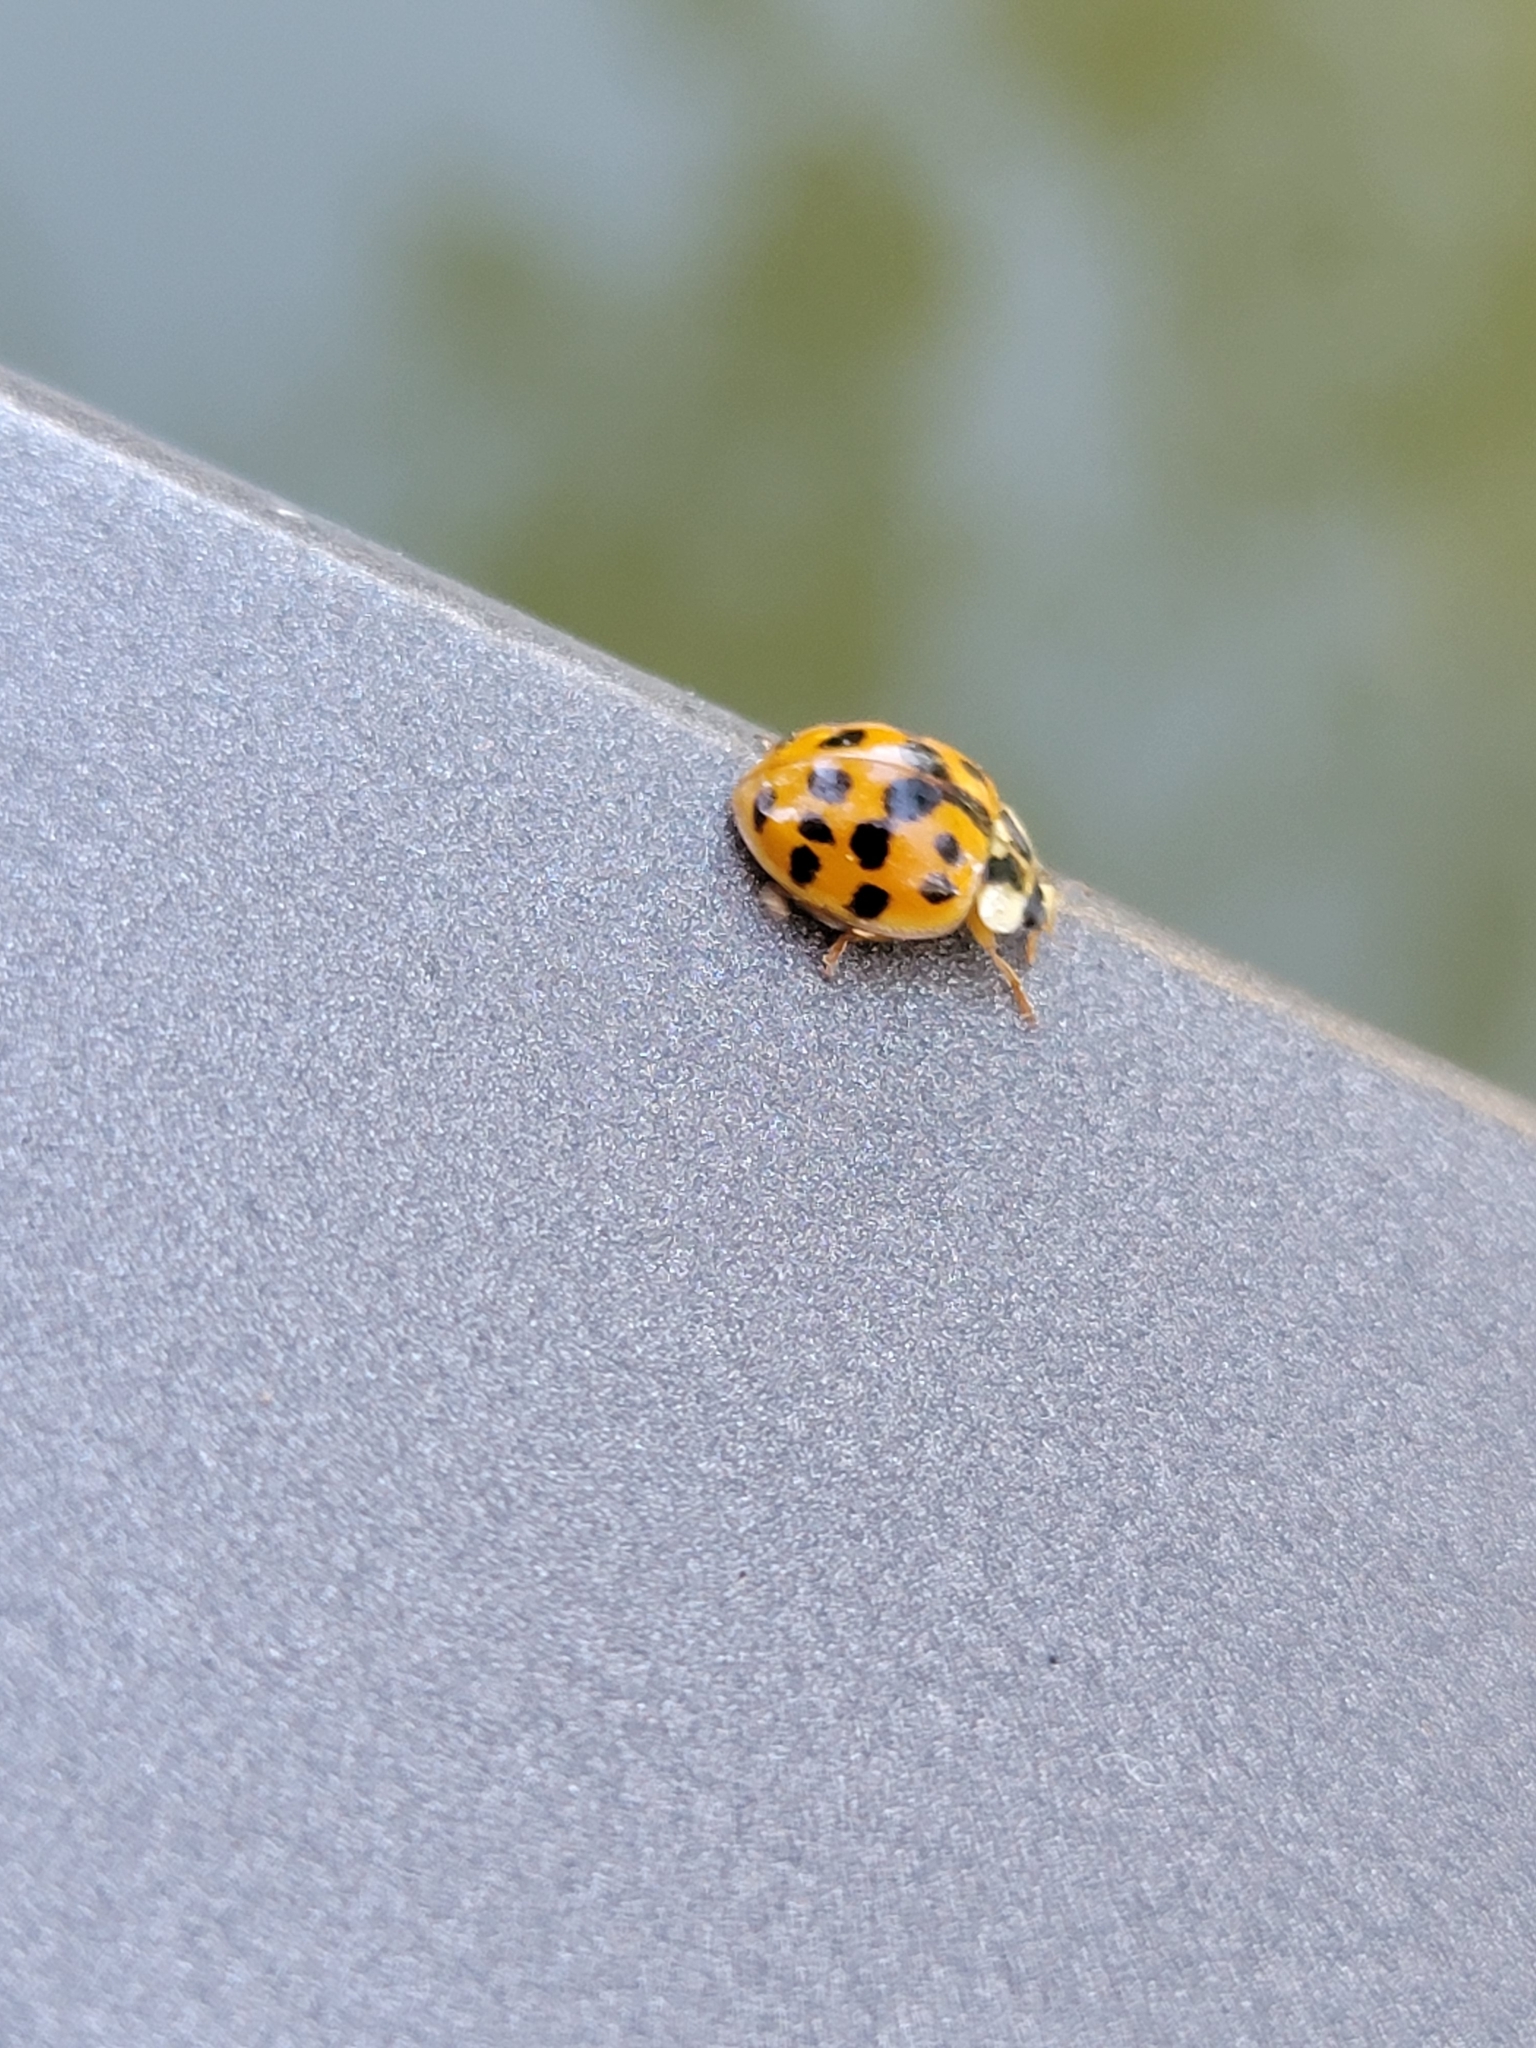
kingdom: Animalia
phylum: Arthropoda
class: Insecta
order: Coleoptera
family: Coccinellidae
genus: Harmonia
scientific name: Harmonia axyridis
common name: Harlequin ladybird
